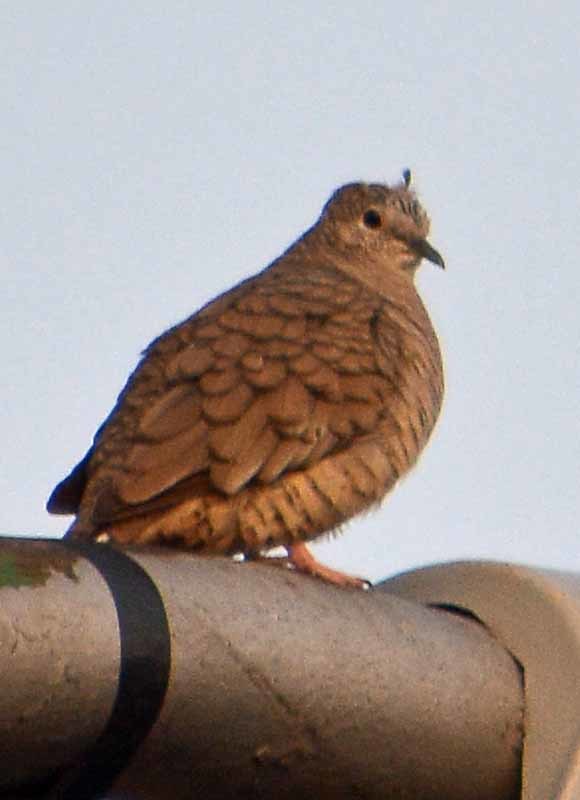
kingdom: Animalia
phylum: Chordata
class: Aves
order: Columbiformes
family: Columbidae
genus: Columbina
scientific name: Columbina inca
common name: Inca dove
